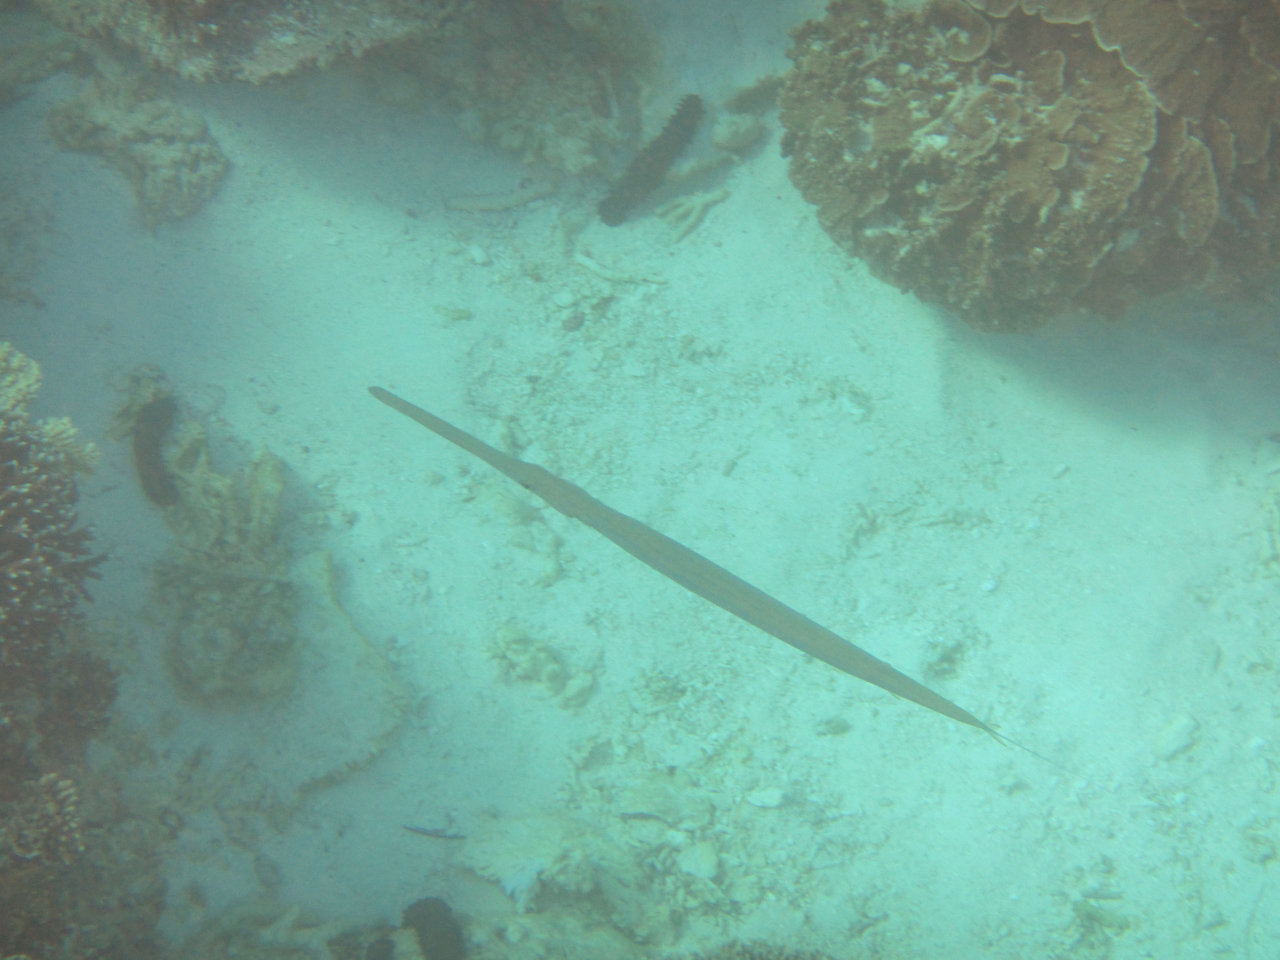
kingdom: Animalia
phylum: Chordata
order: Syngnathiformes
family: Fistulariidae
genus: Fistularia
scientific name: Fistularia commersonii
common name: Bluespotted cornetfish
